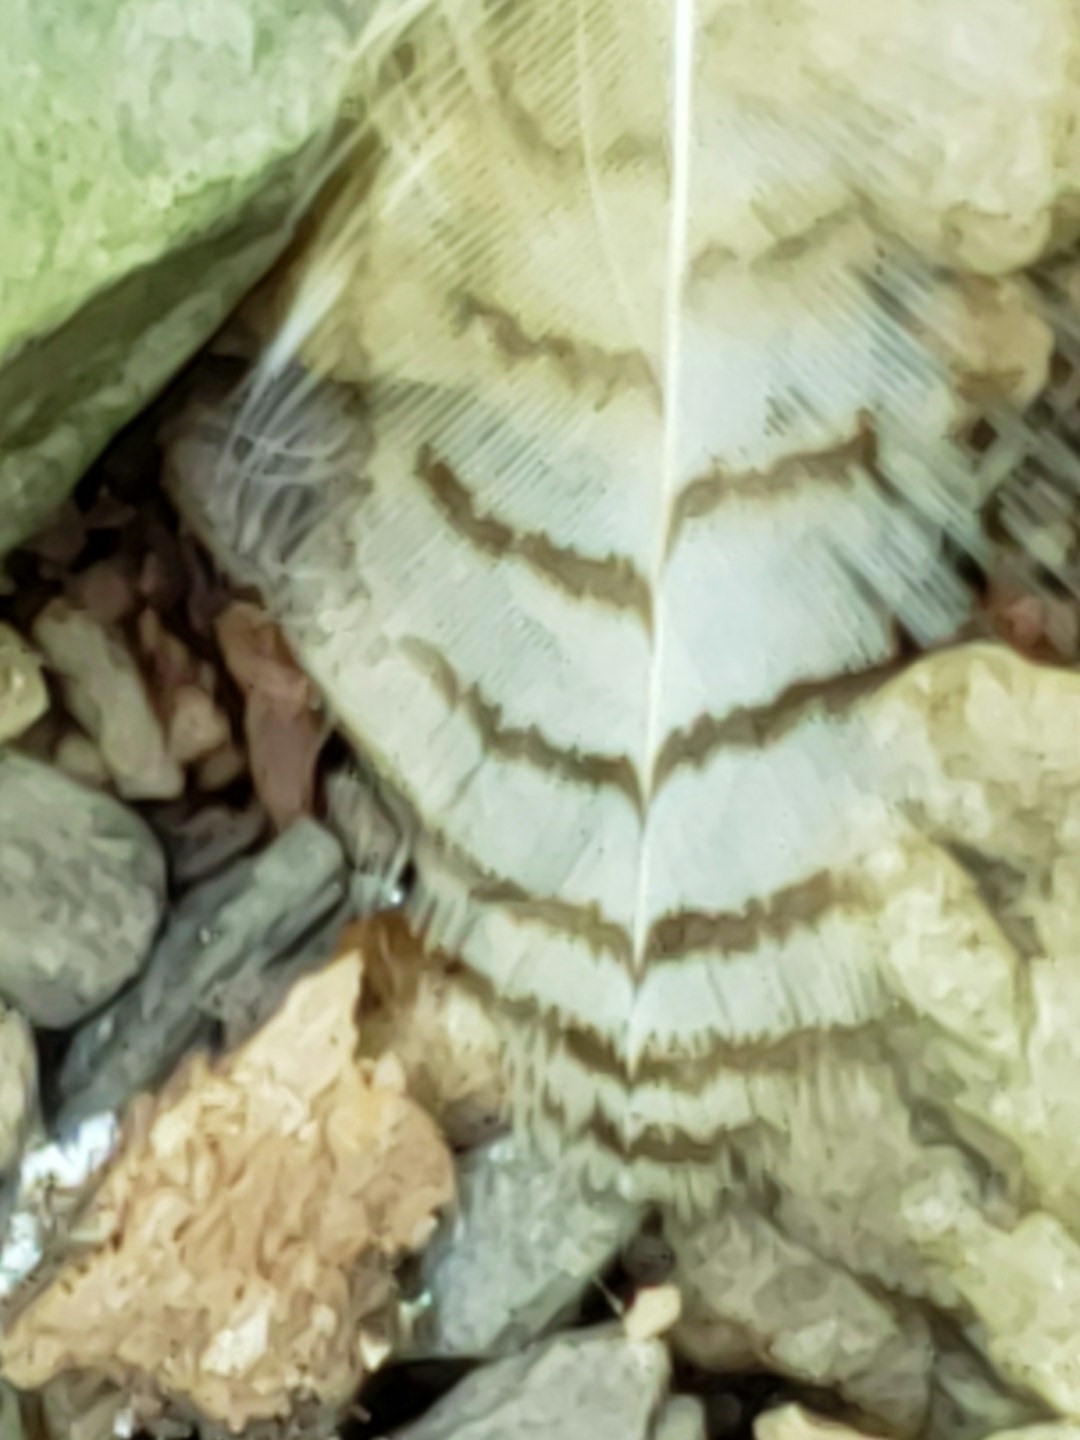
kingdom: Animalia
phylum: Chordata
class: Aves
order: Strigiformes
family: Strigidae
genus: Bubo
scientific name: Bubo virginianus
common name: Great horned owl
